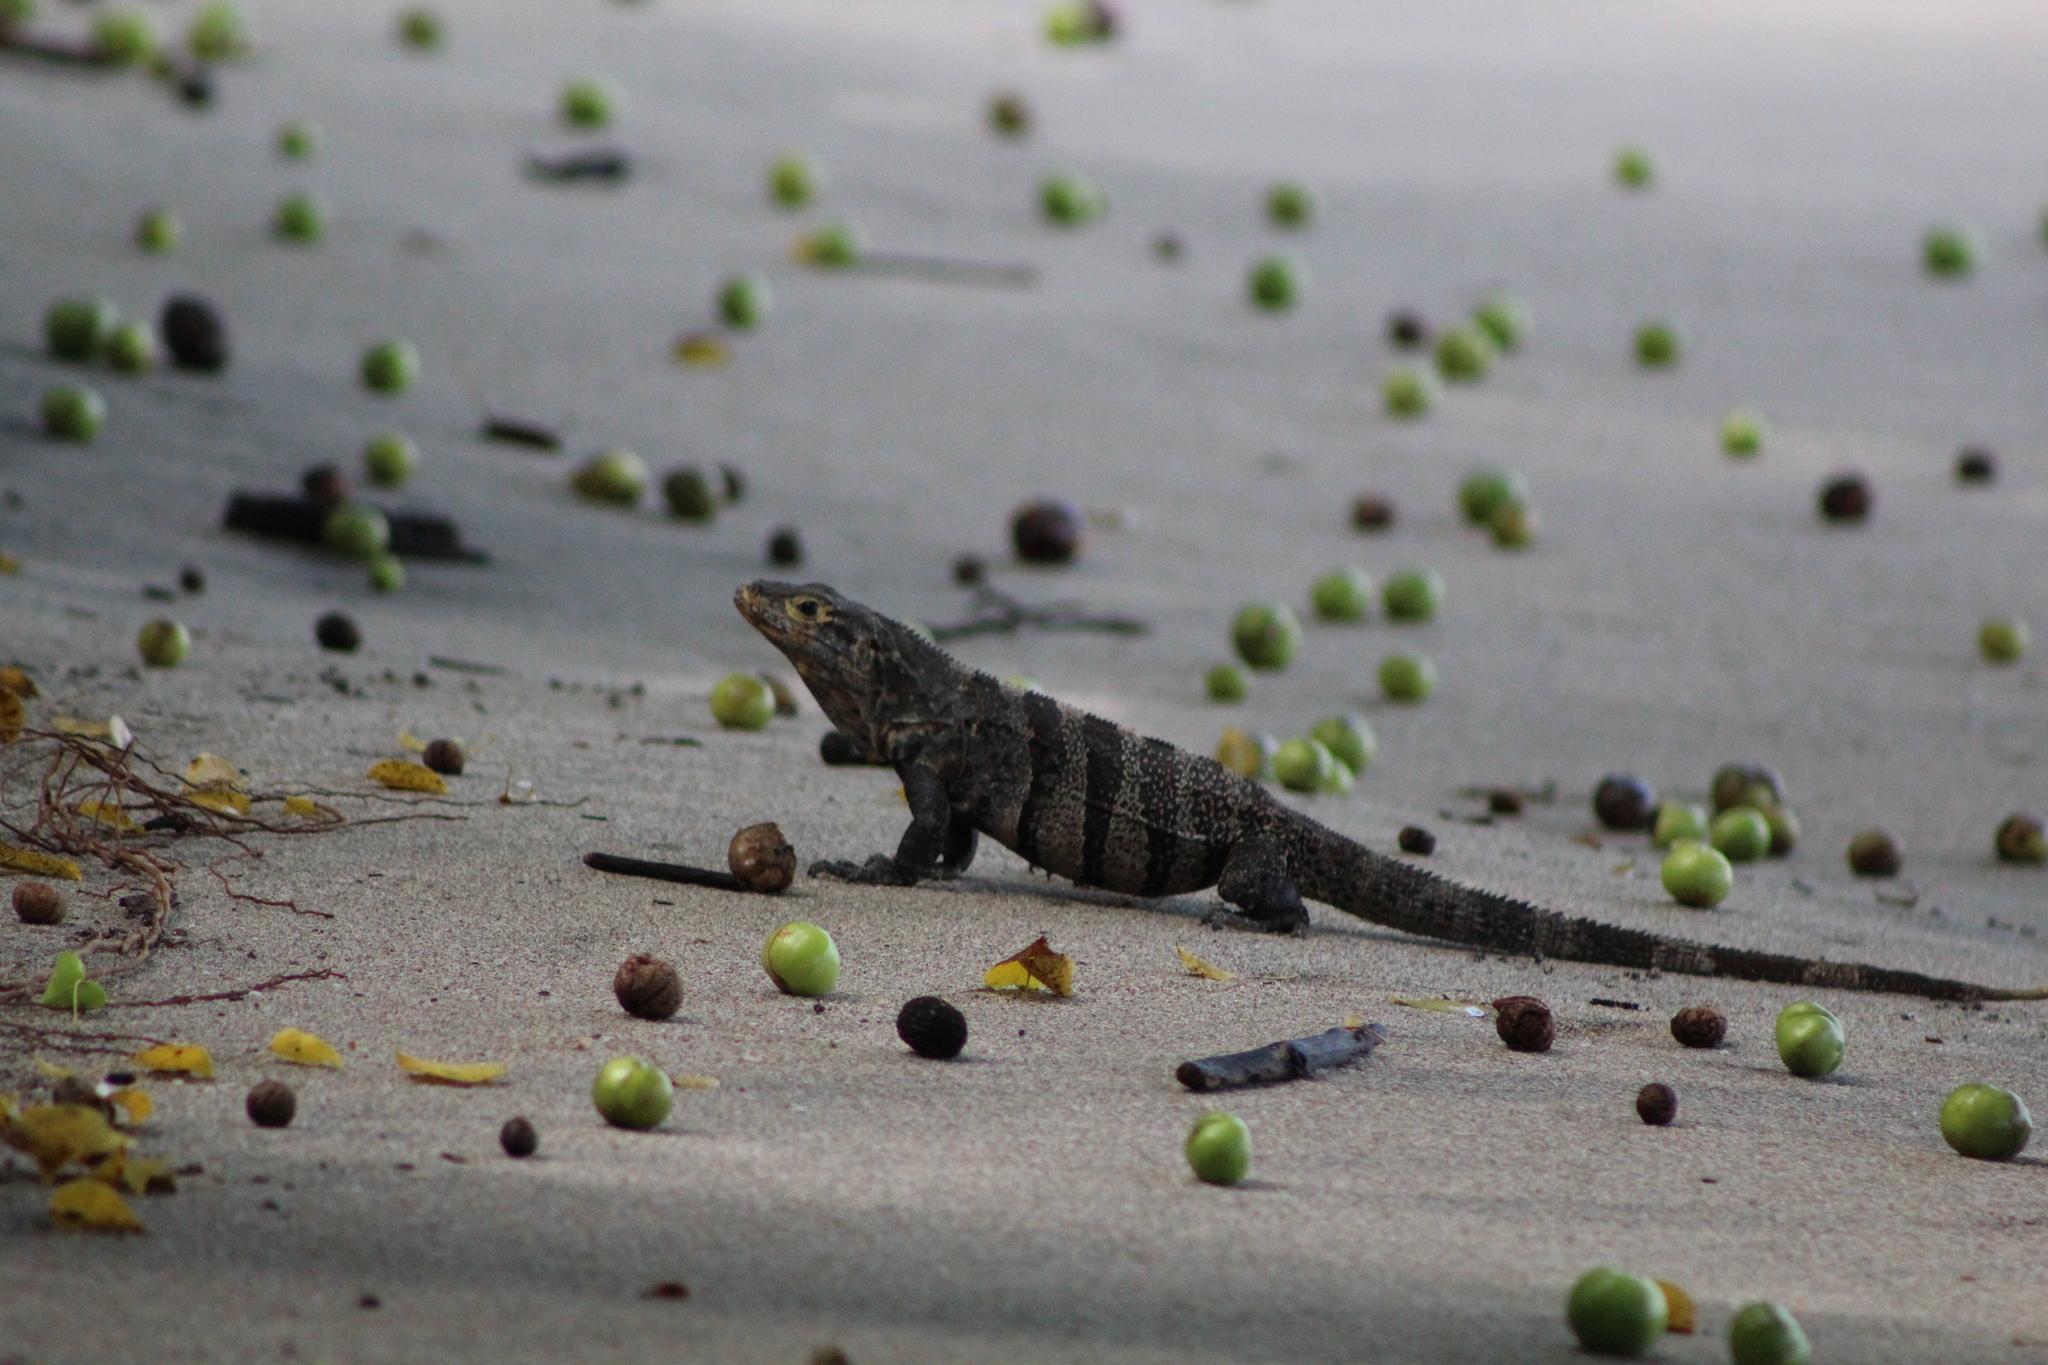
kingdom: Animalia
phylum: Chordata
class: Squamata
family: Iguanidae
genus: Ctenosaura
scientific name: Ctenosaura similis
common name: Black spiny-tailed iguana
